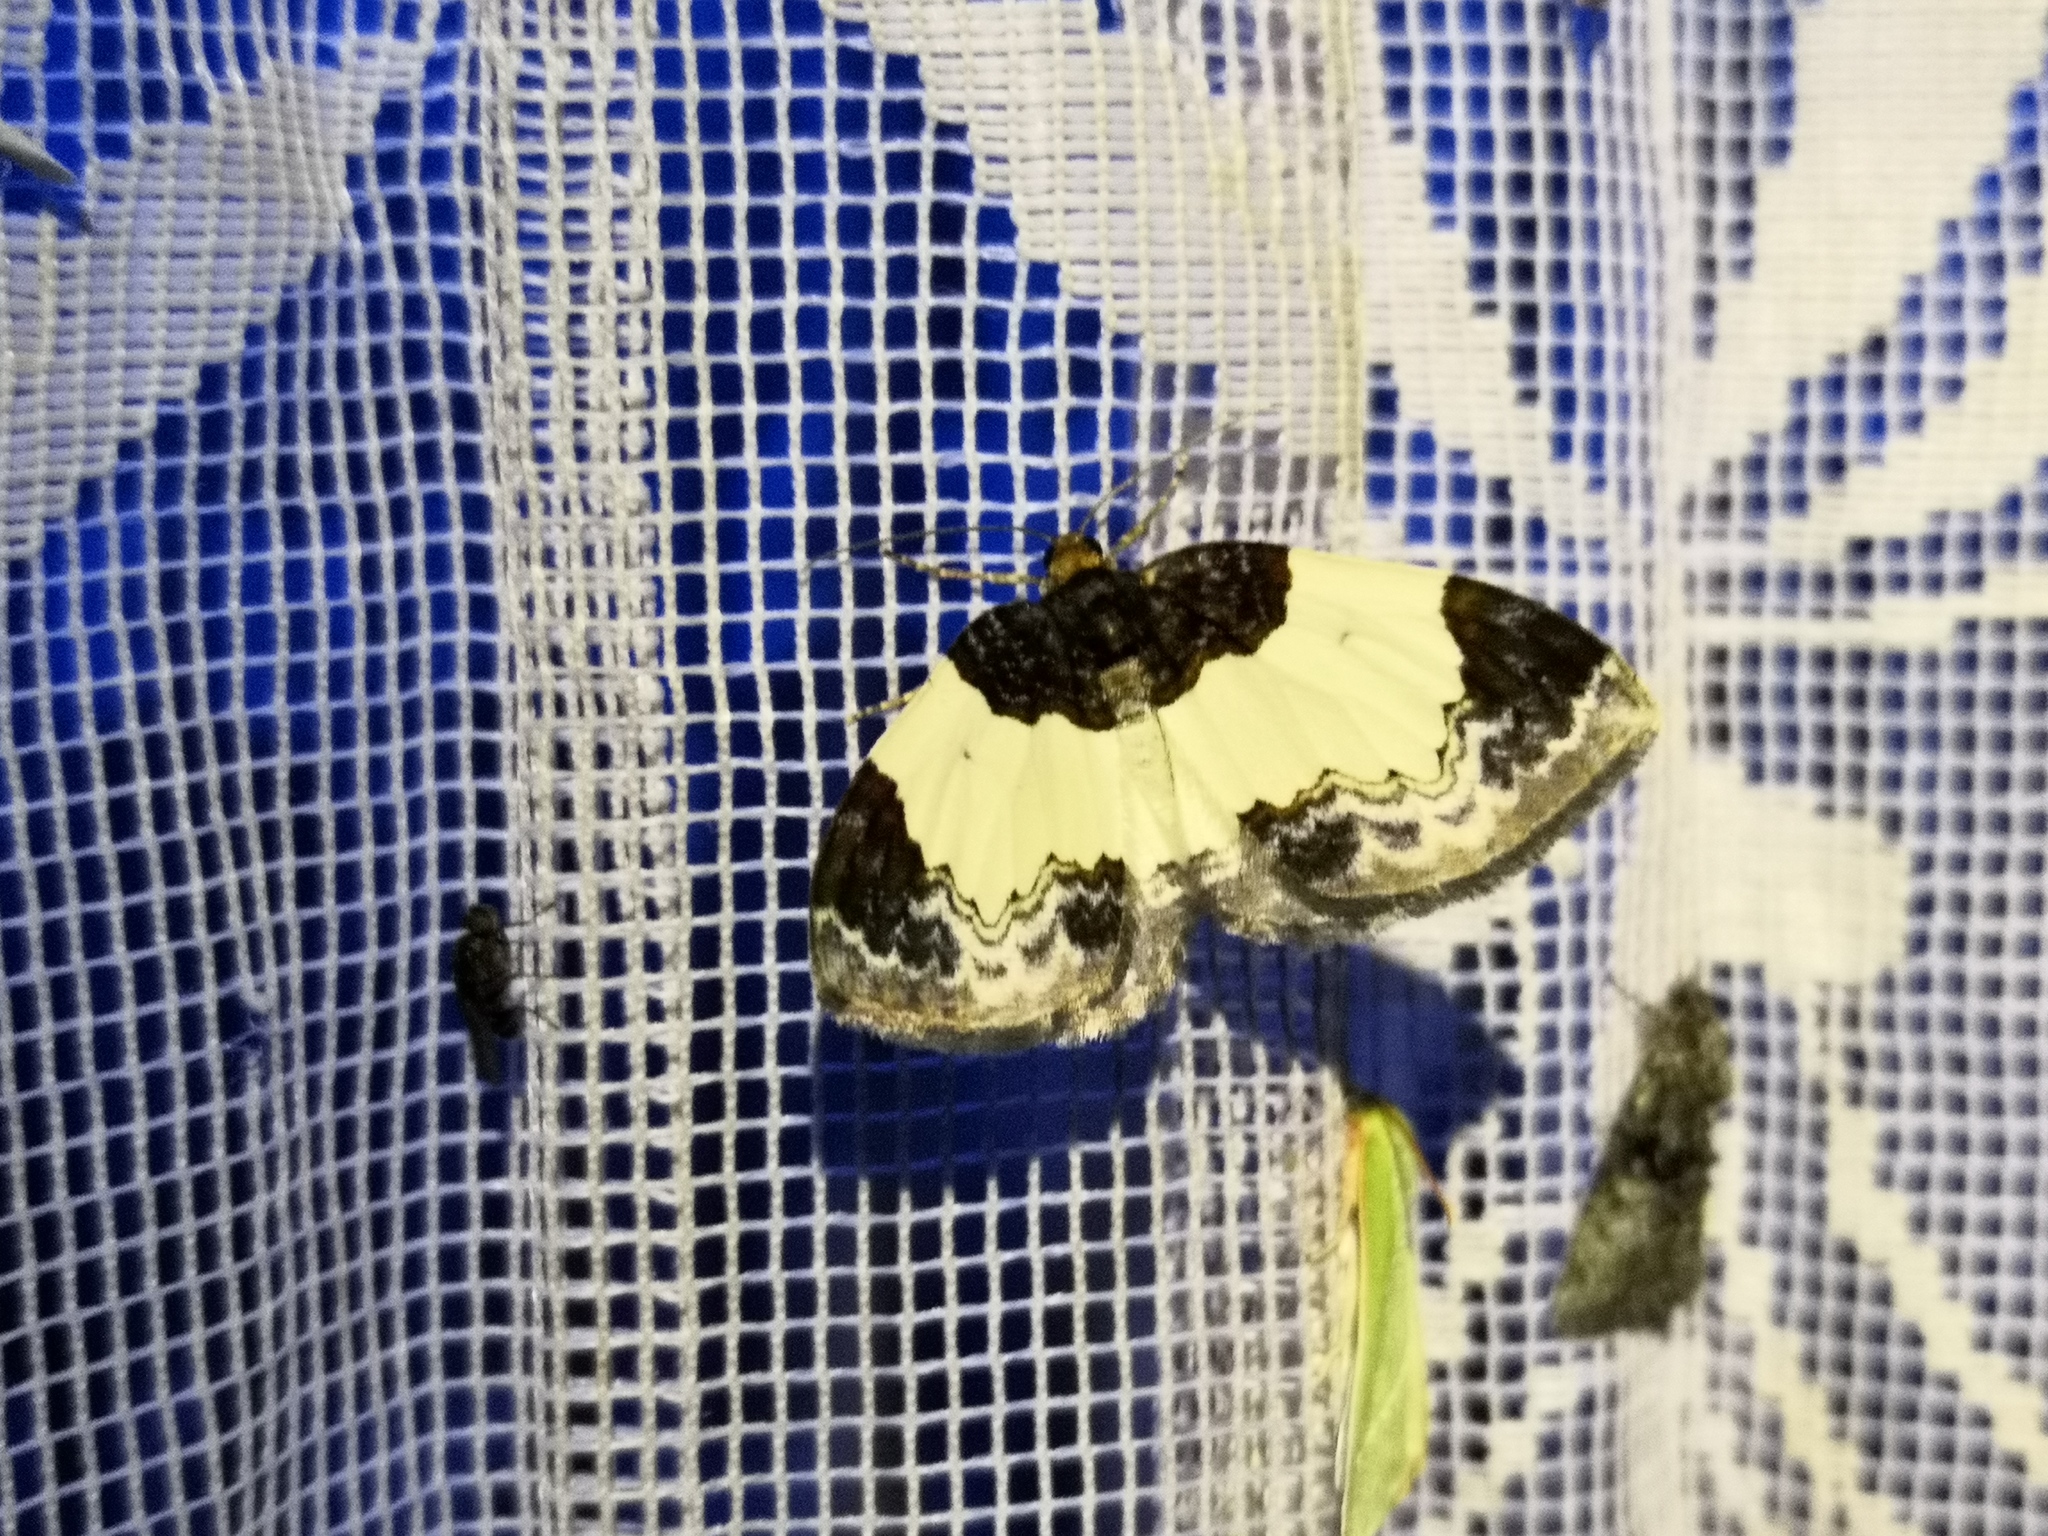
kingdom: Animalia
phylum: Arthropoda
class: Insecta
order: Lepidoptera
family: Geometridae
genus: Mesoleuca
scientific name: Mesoleuca albicillata
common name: Beautiful carpet
